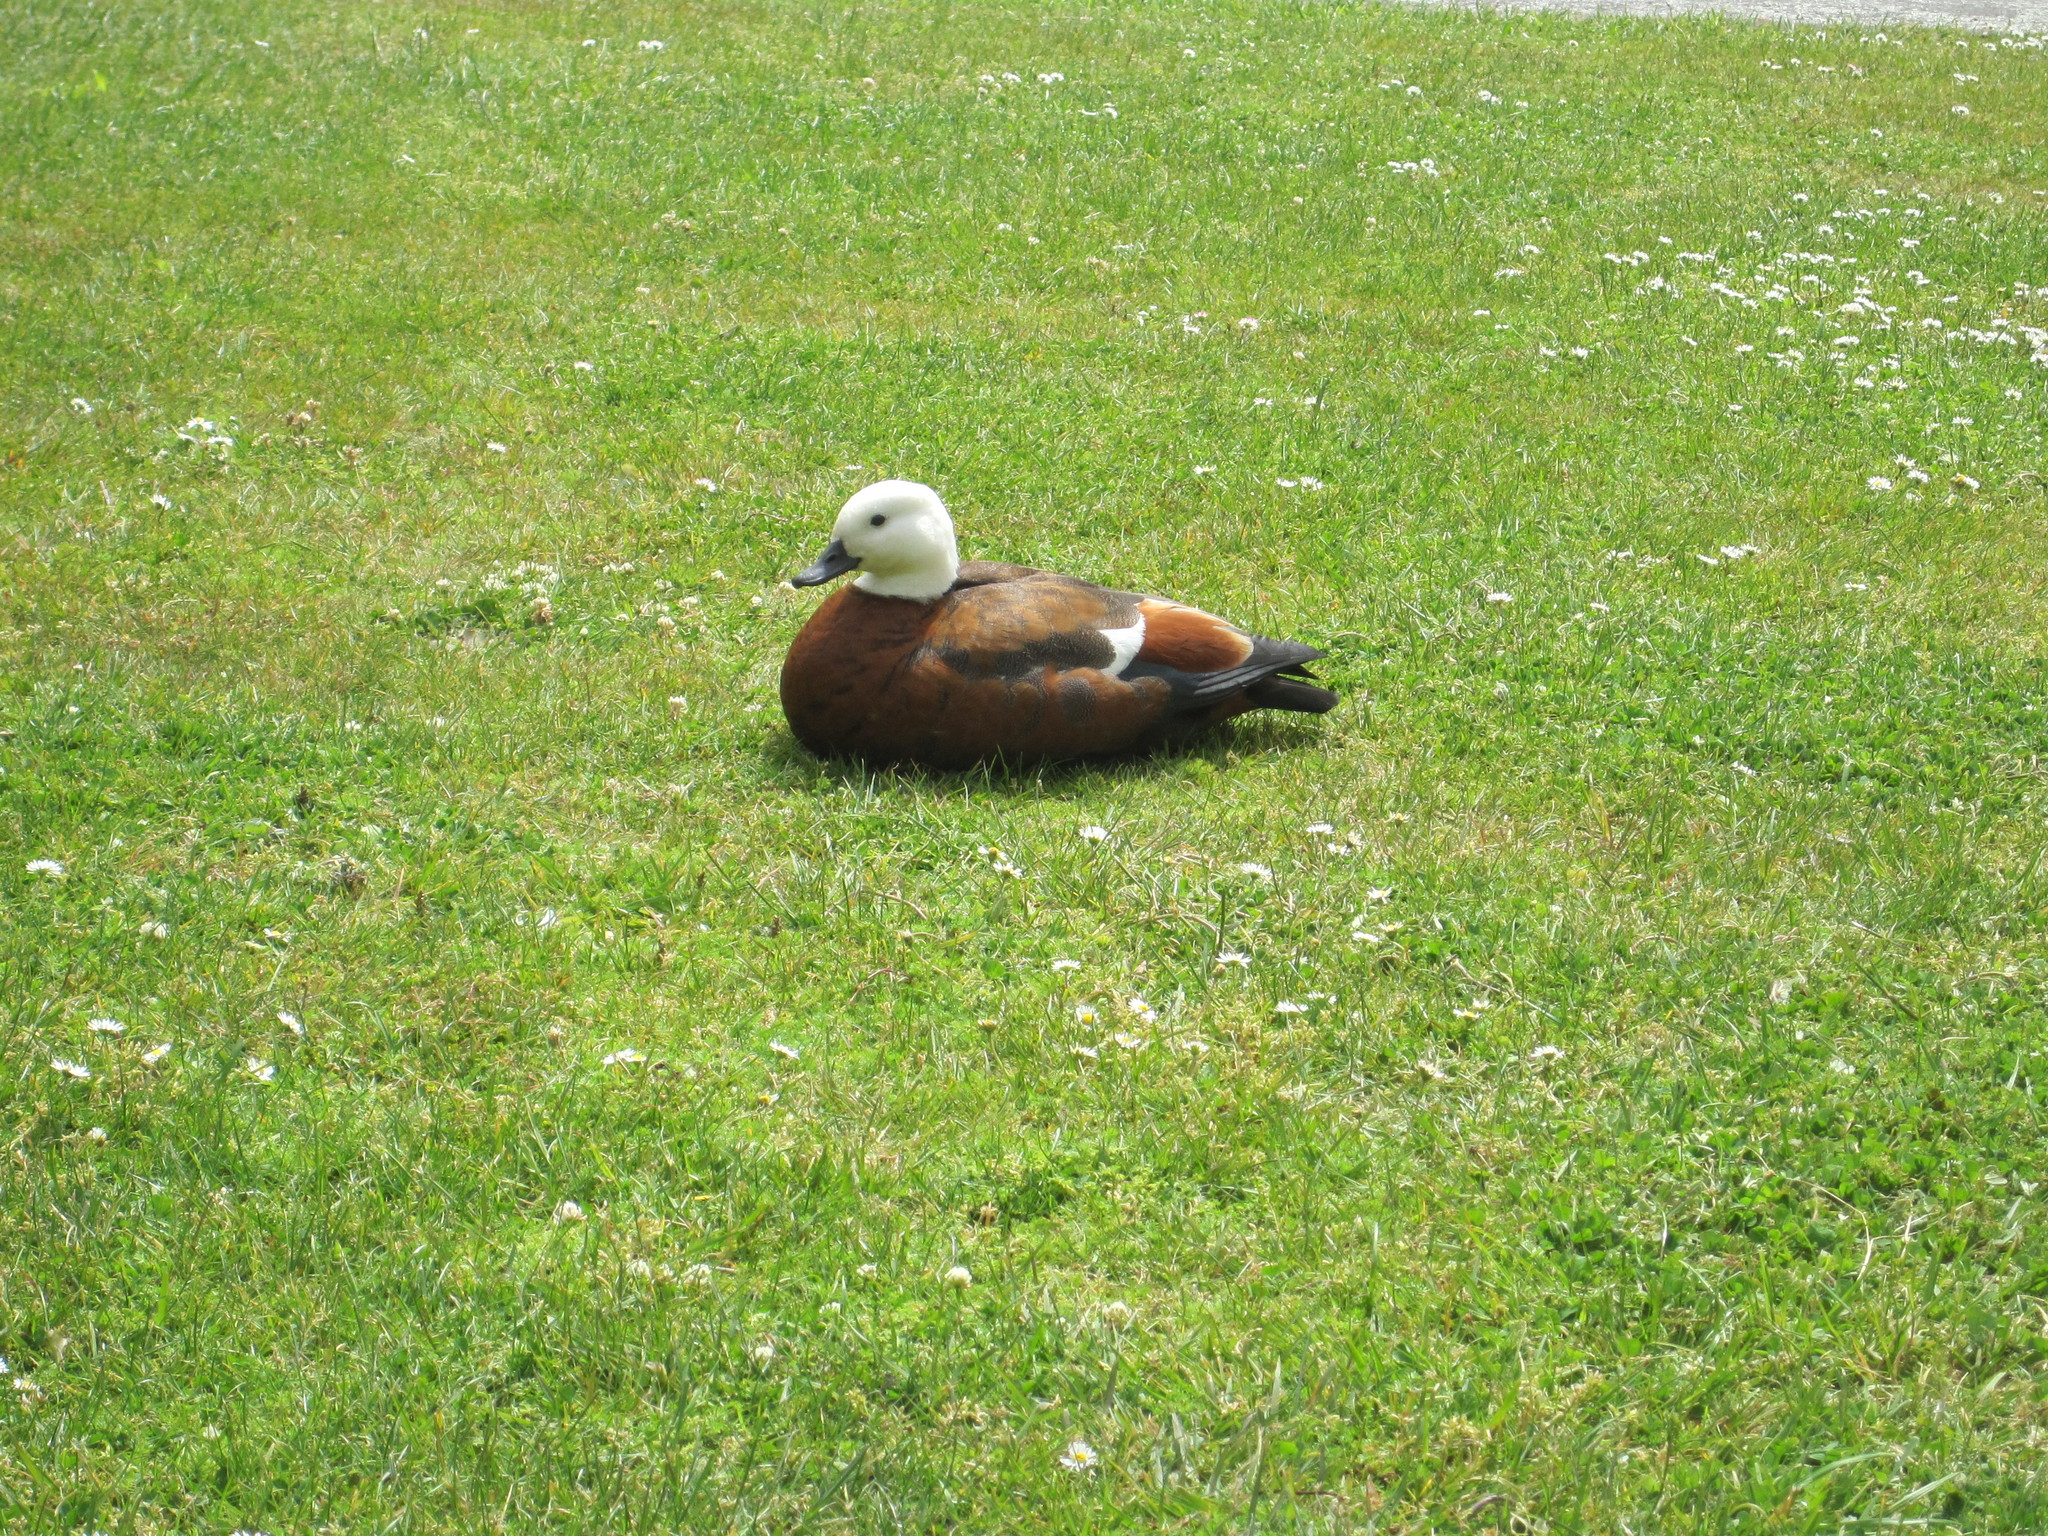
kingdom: Animalia
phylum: Chordata
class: Aves
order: Anseriformes
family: Anatidae
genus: Tadorna
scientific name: Tadorna variegata
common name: Paradise shelduck
